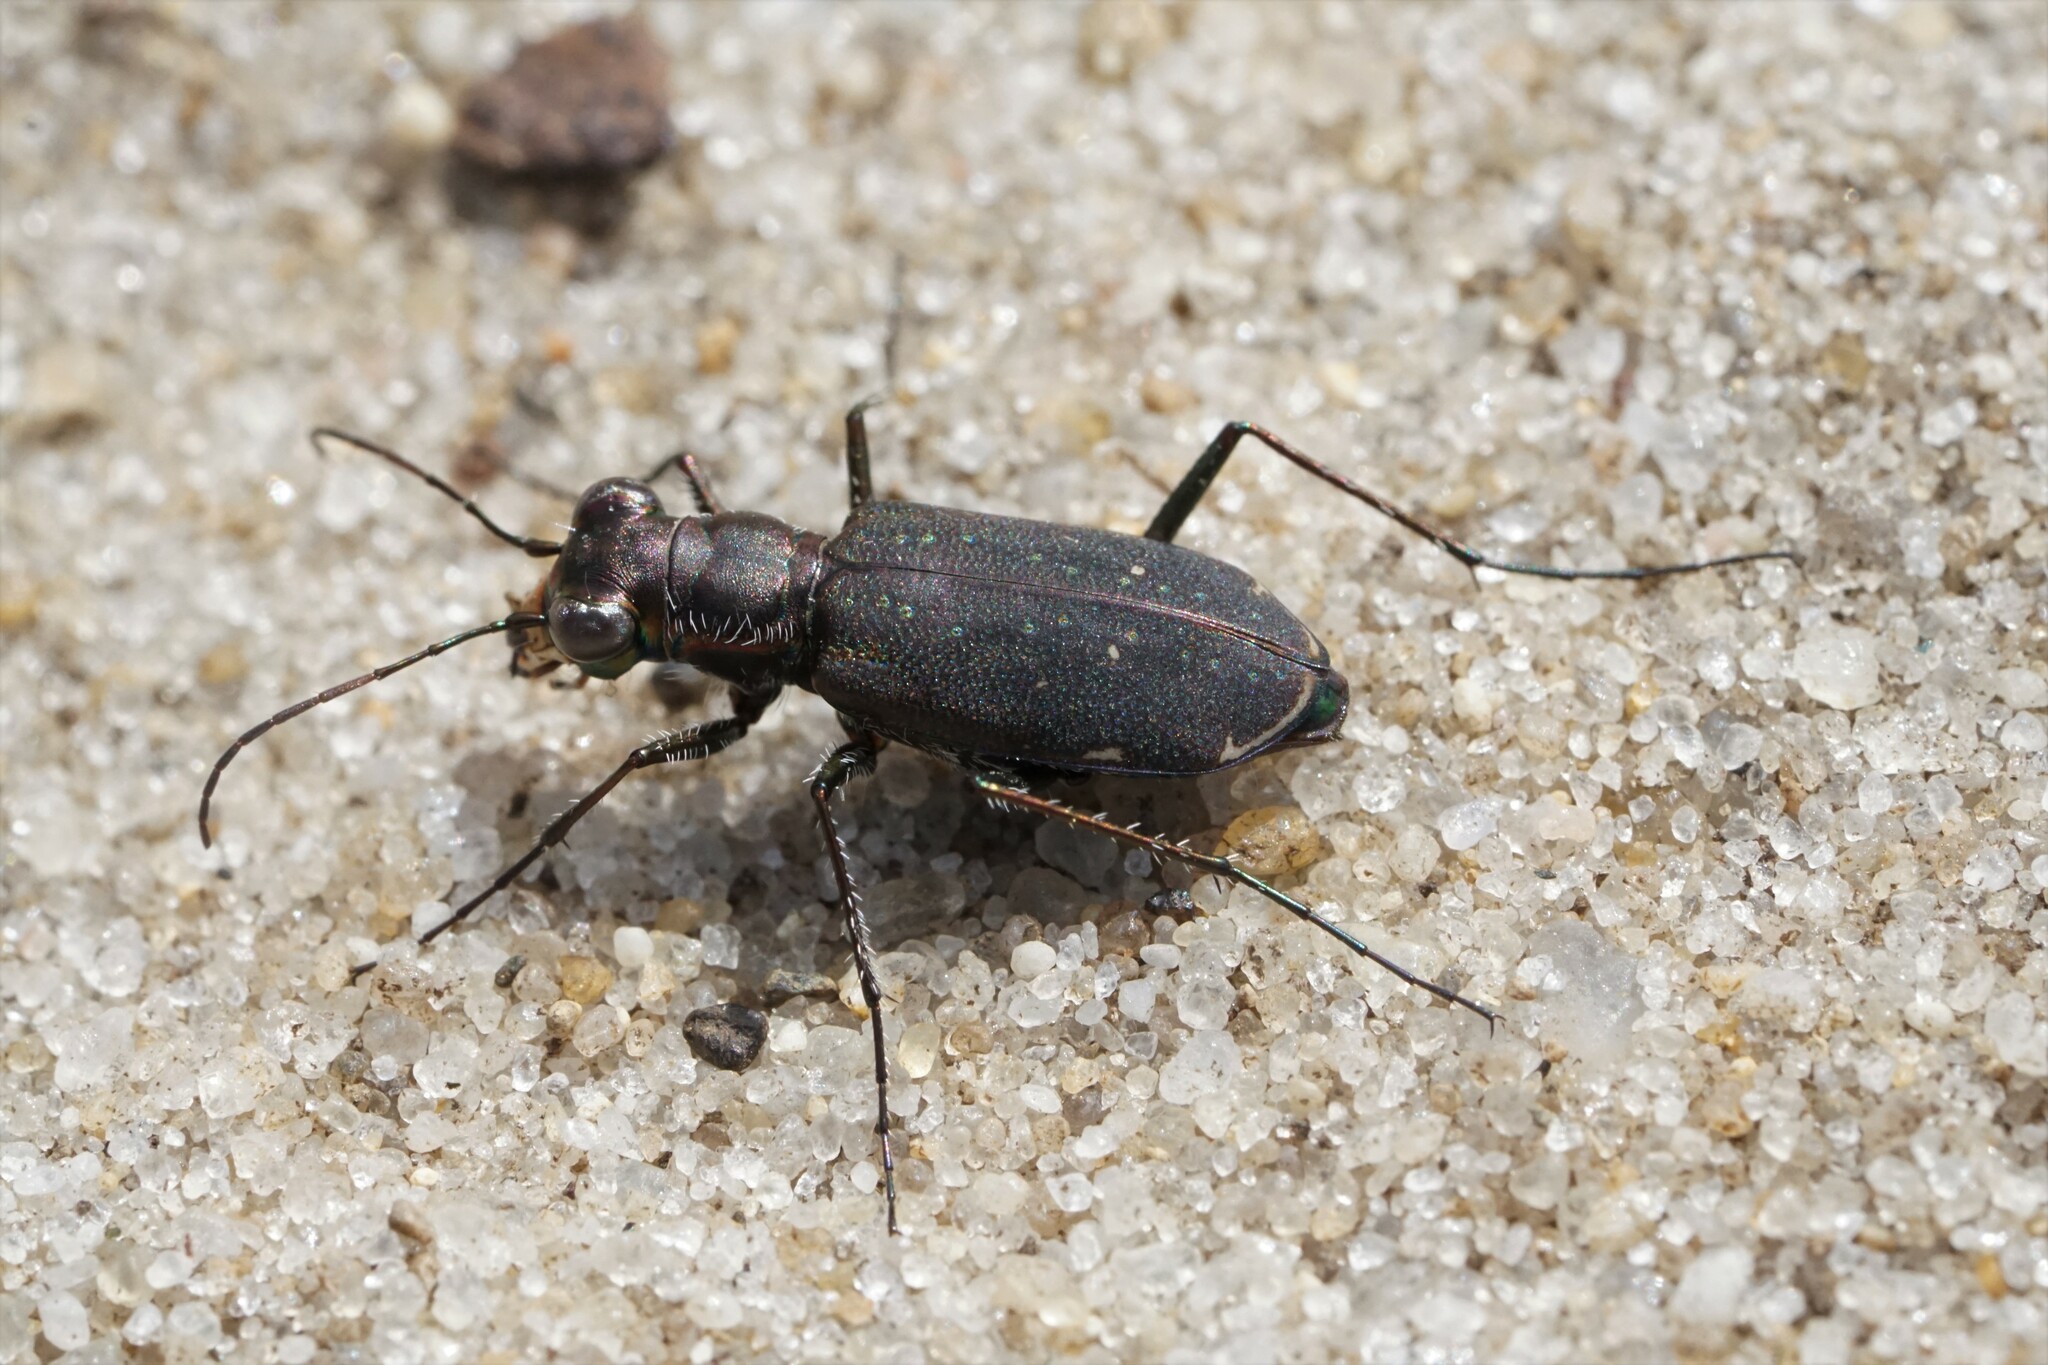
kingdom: Animalia
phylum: Arthropoda
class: Insecta
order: Coleoptera
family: Carabidae
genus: Cicindela
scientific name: Cicindela punctulata
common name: Punctured tiger beetle
